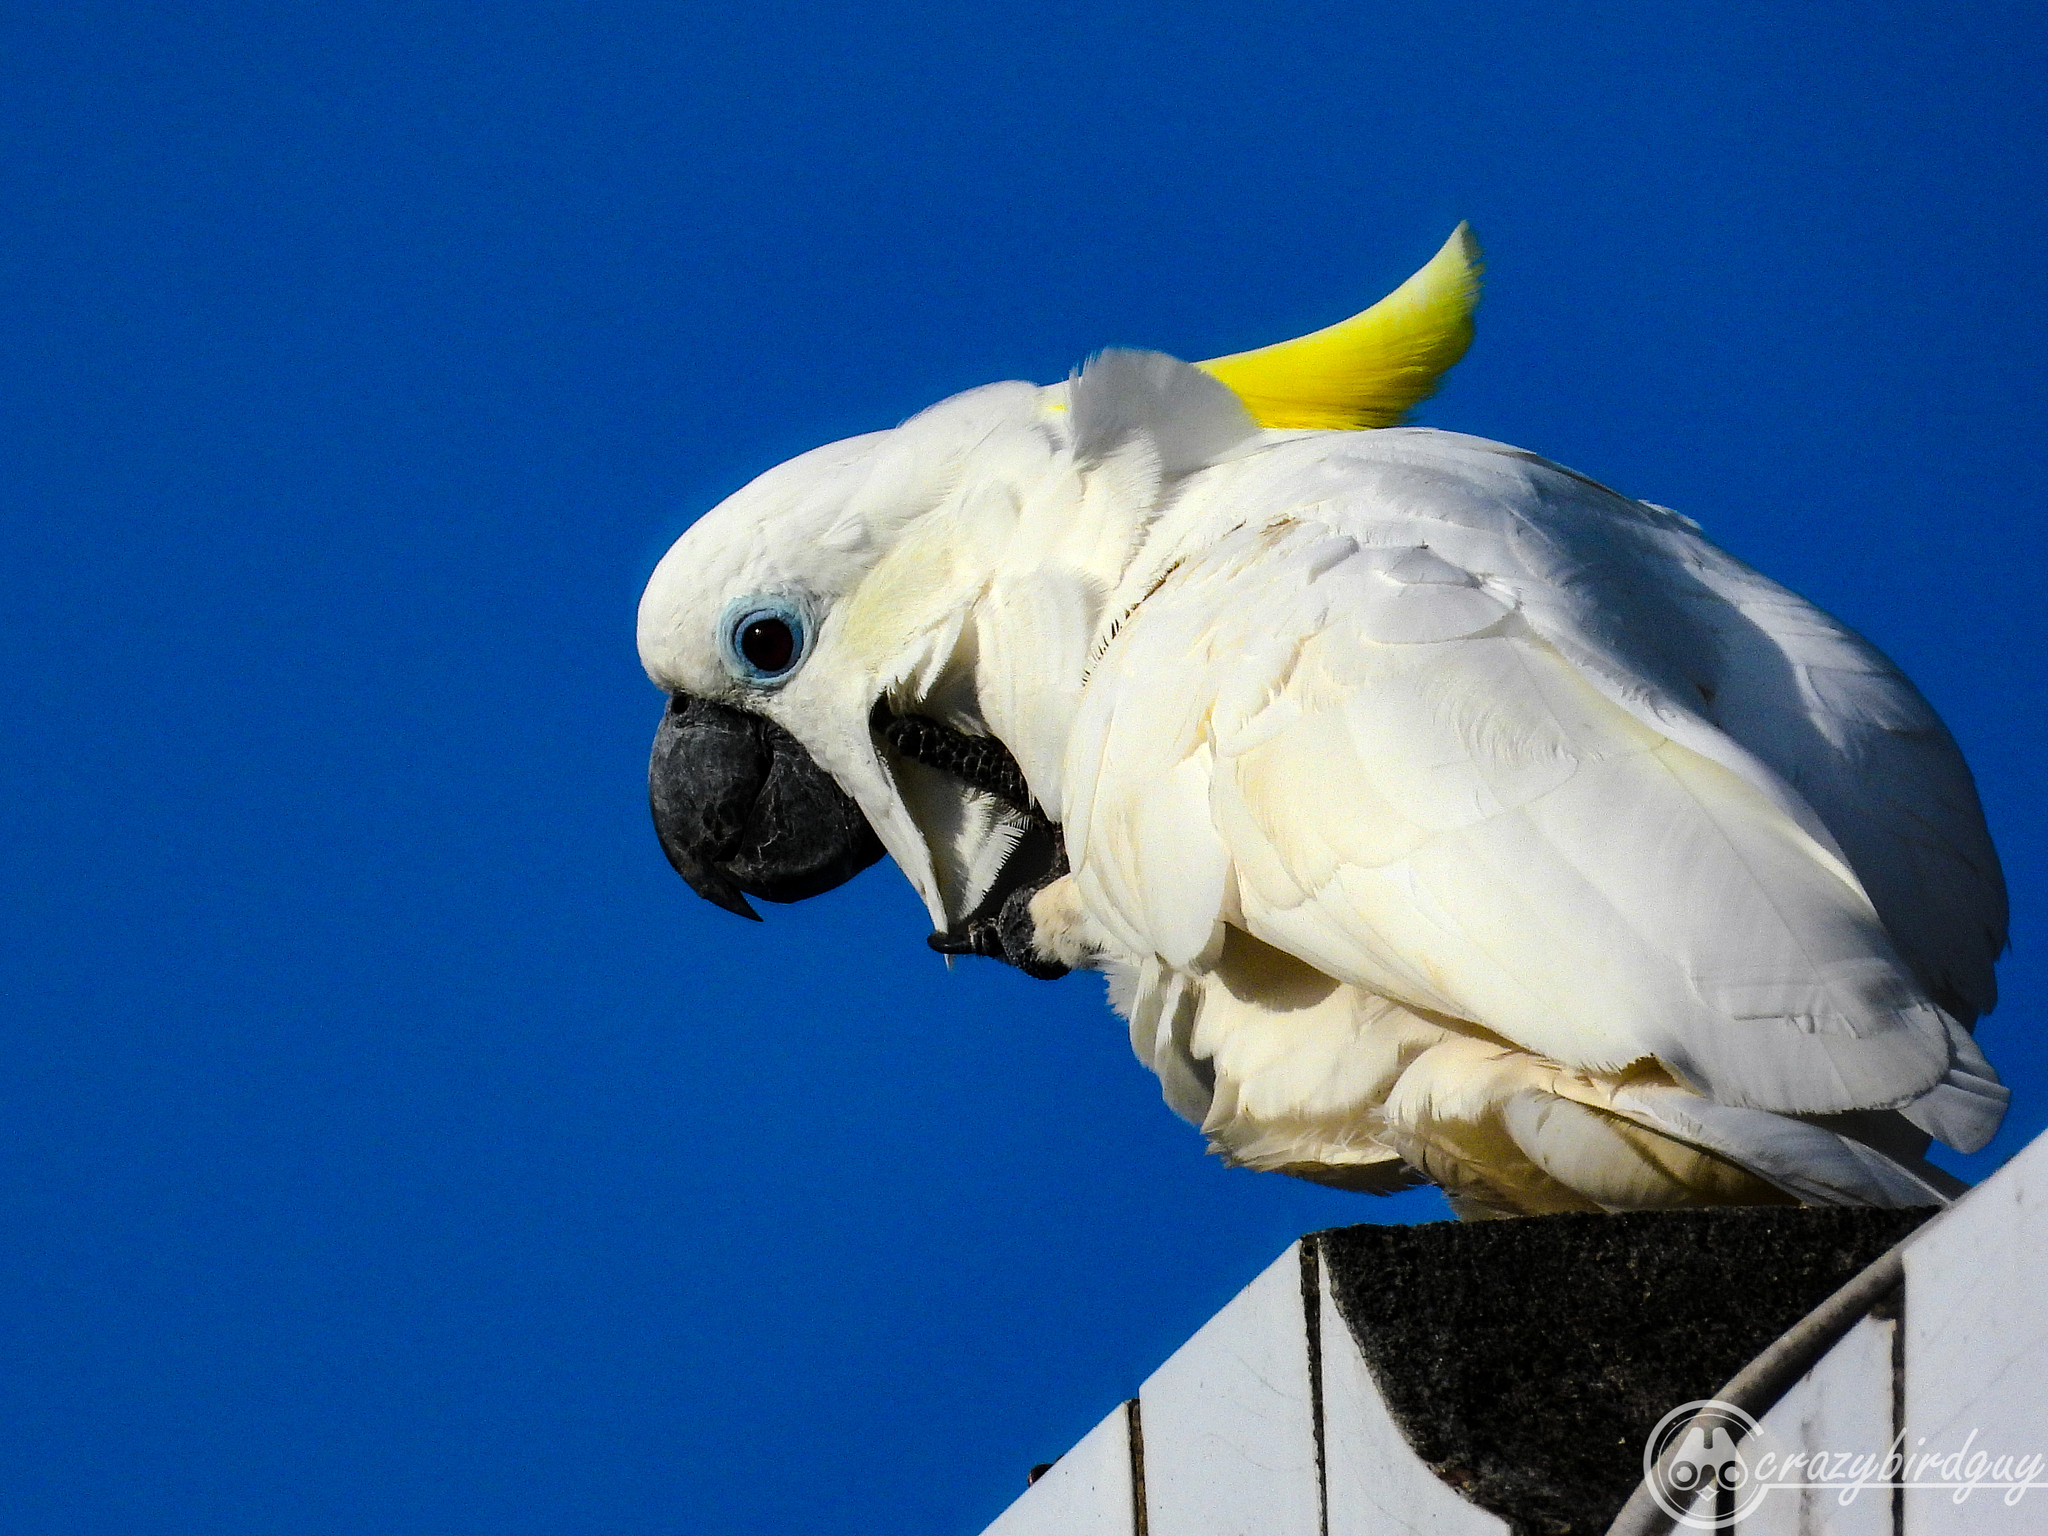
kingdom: Animalia
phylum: Chordata
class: Aves
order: Psittaciformes
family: Psittacidae
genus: Cacatua
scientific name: Cacatua galerita
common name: Sulphur-crested cockatoo
